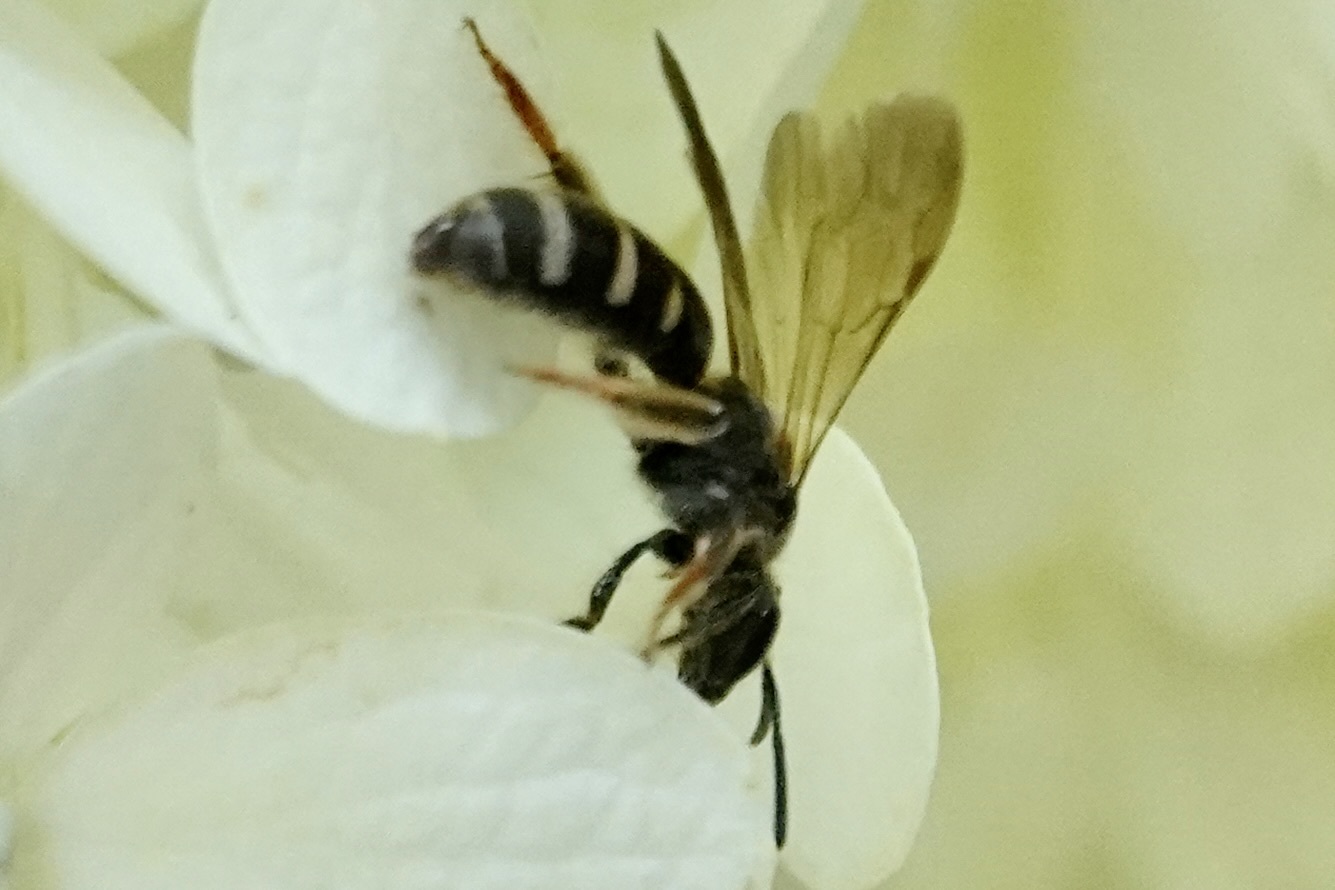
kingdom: Animalia
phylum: Arthropoda
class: Insecta
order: Hymenoptera
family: Halictidae
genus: Lasioglossum
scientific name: Lasioglossum fuscipenne
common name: Brown-winged sweat bee
